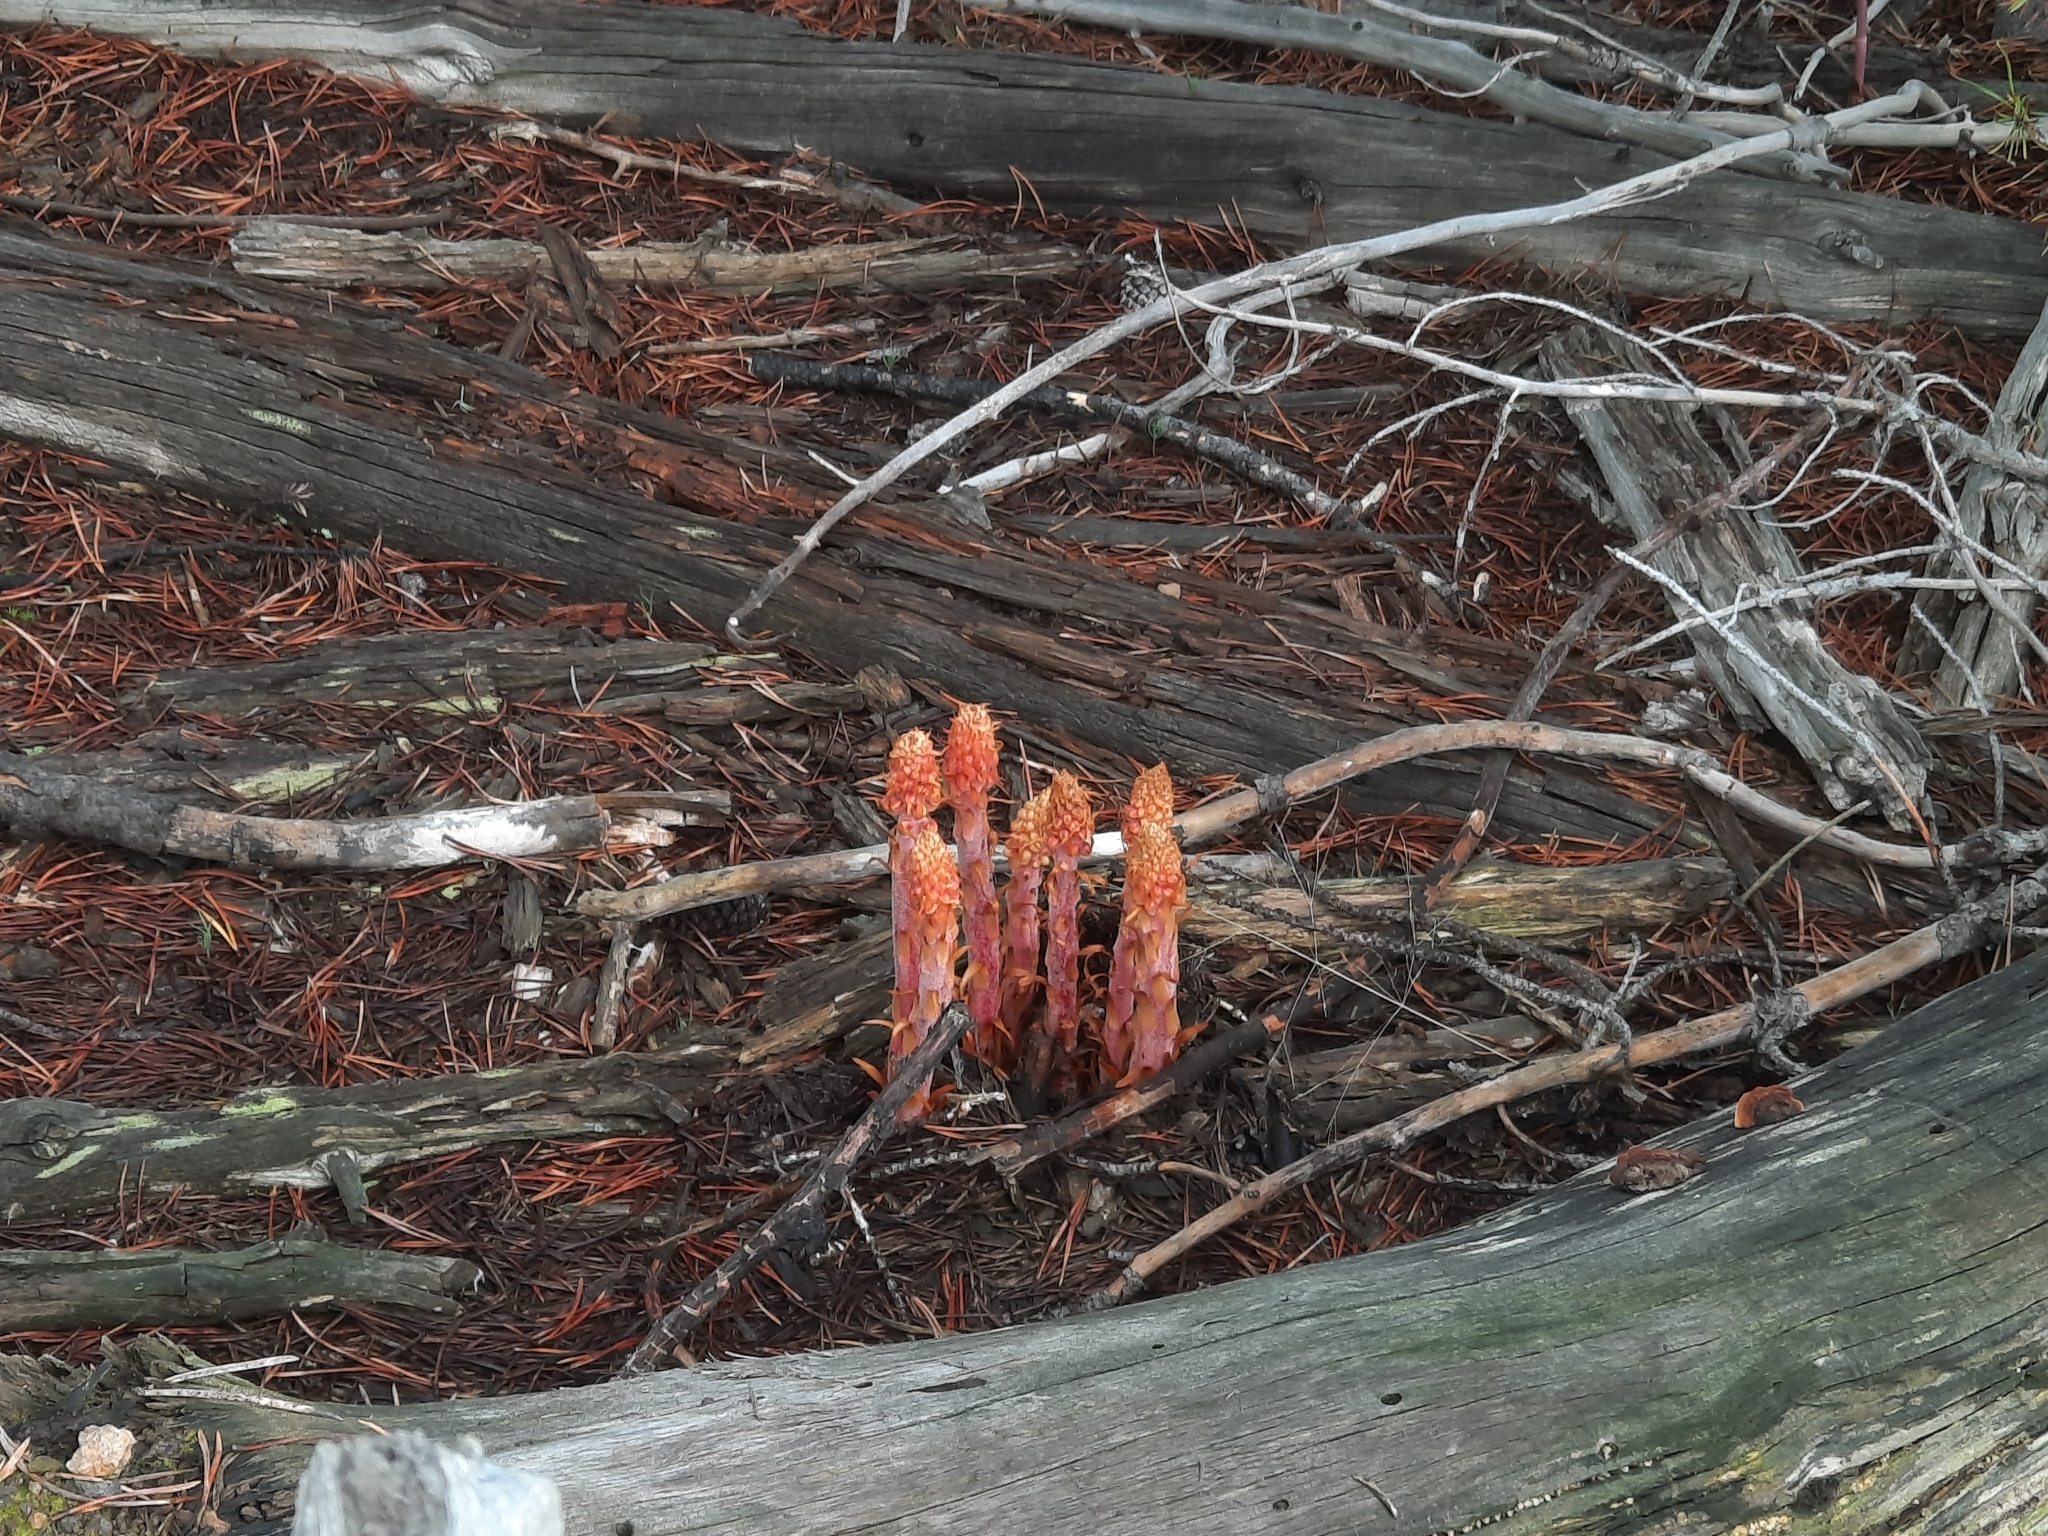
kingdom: Plantae
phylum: Tracheophyta
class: Magnoliopsida
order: Ericales
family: Ericaceae
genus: Pterospora
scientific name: Pterospora andromedea
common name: Giant bird's-nest
